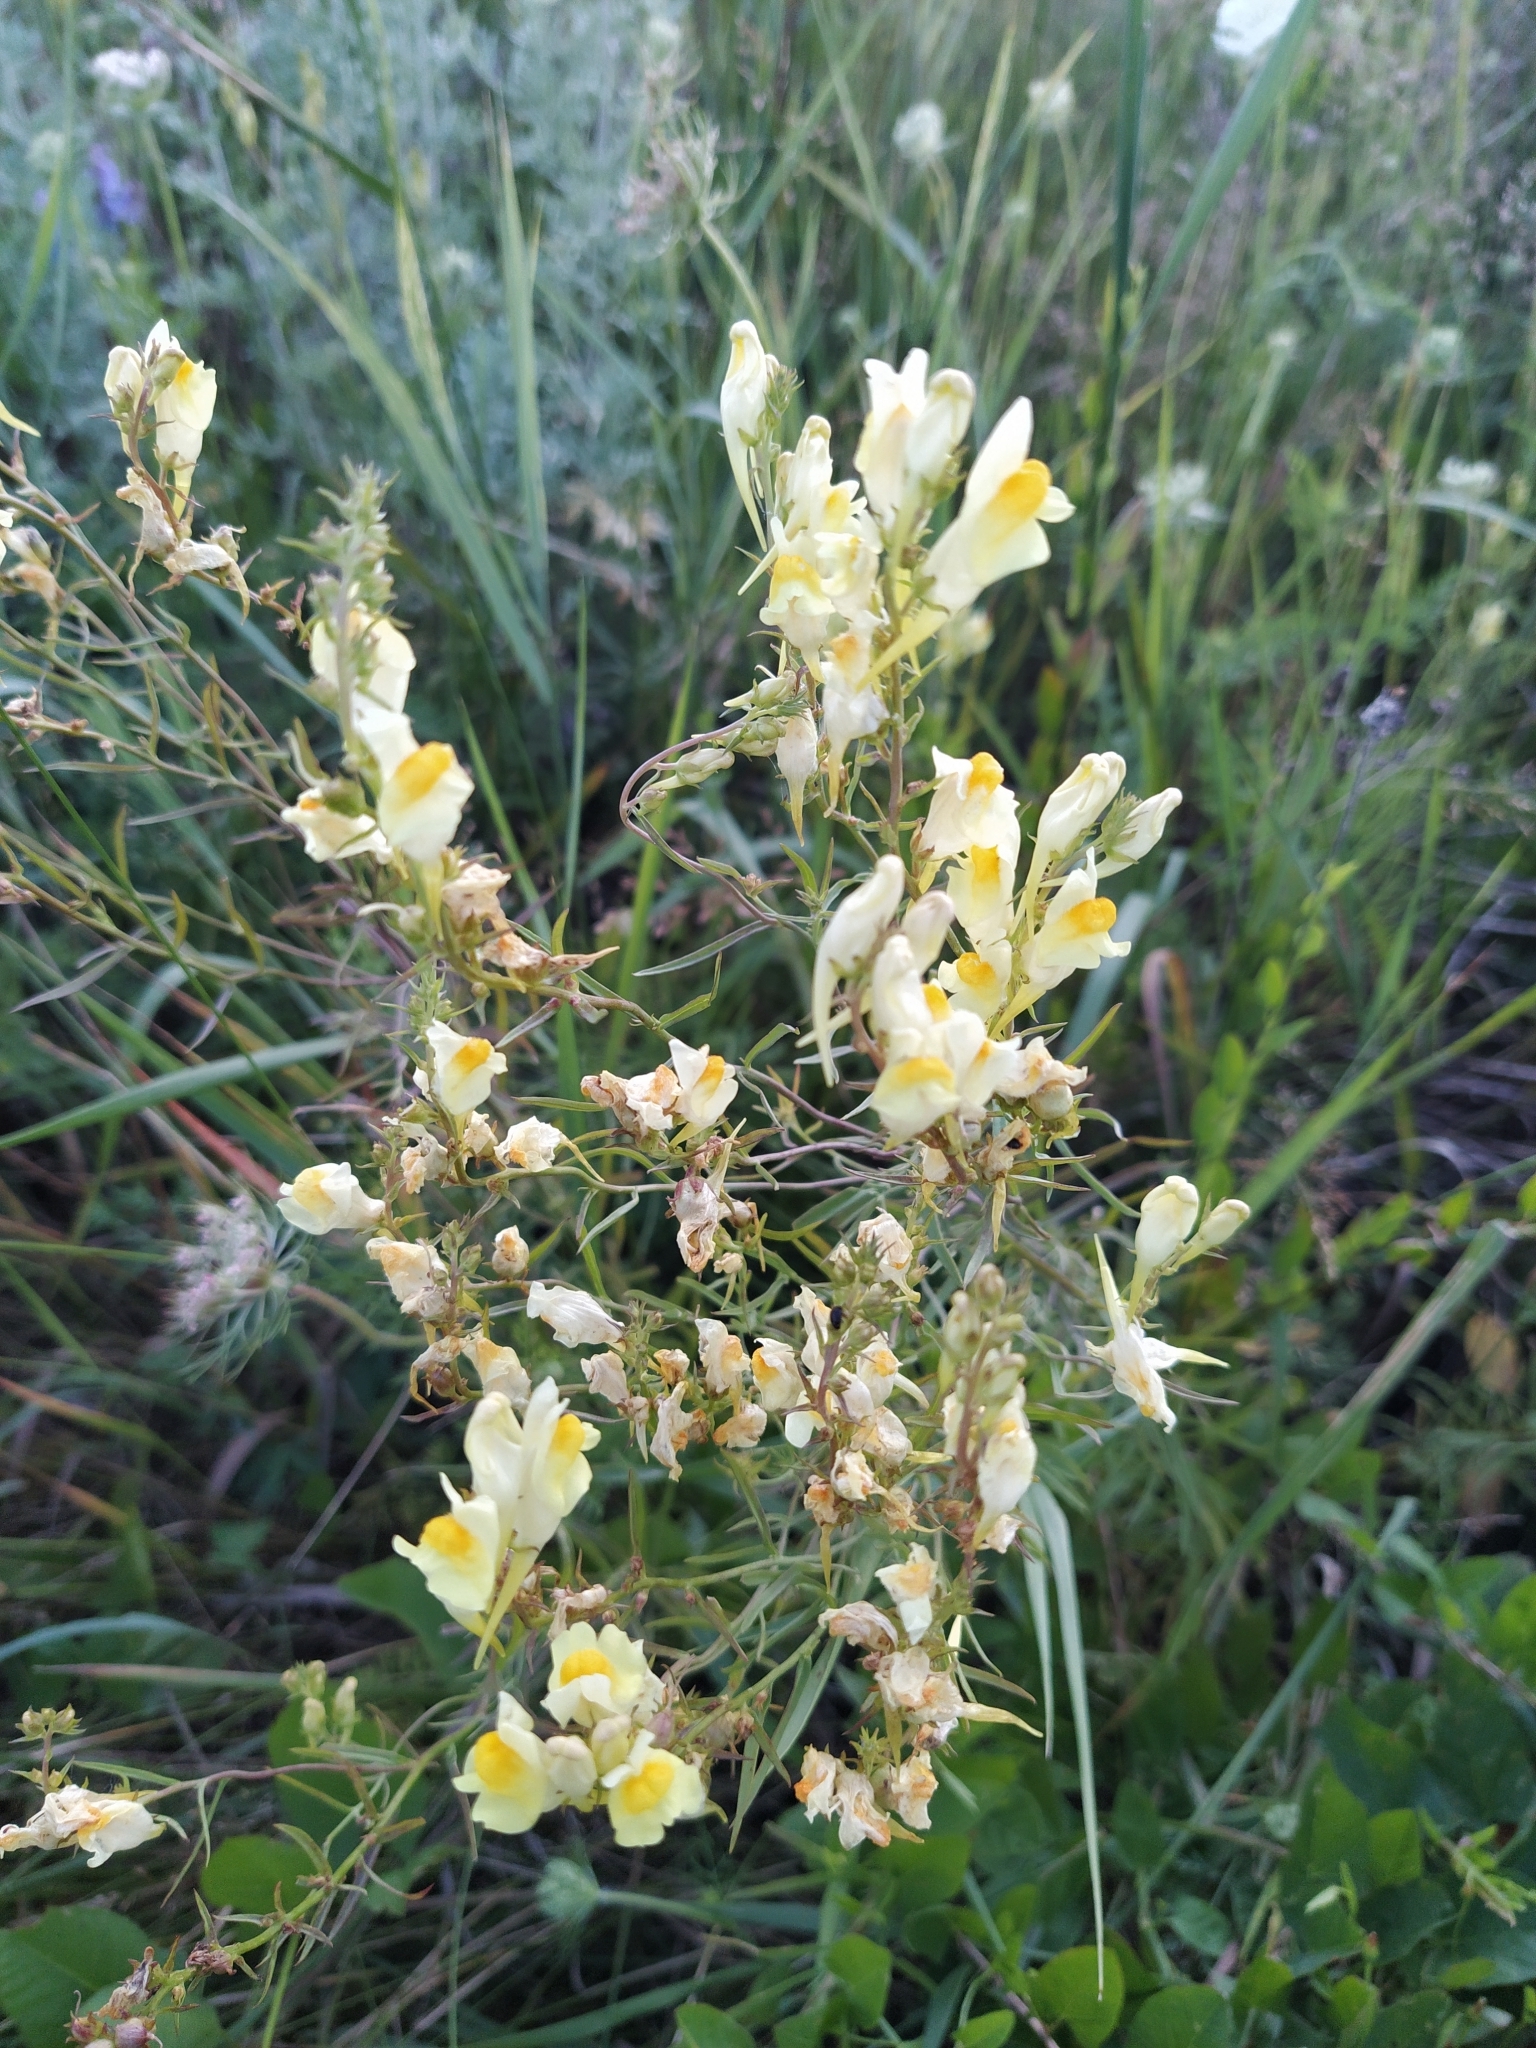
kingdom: Plantae
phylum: Tracheophyta
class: Magnoliopsida
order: Lamiales
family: Plantaginaceae
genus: Linaria
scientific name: Linaria vulgaris
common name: Butter and eggs
